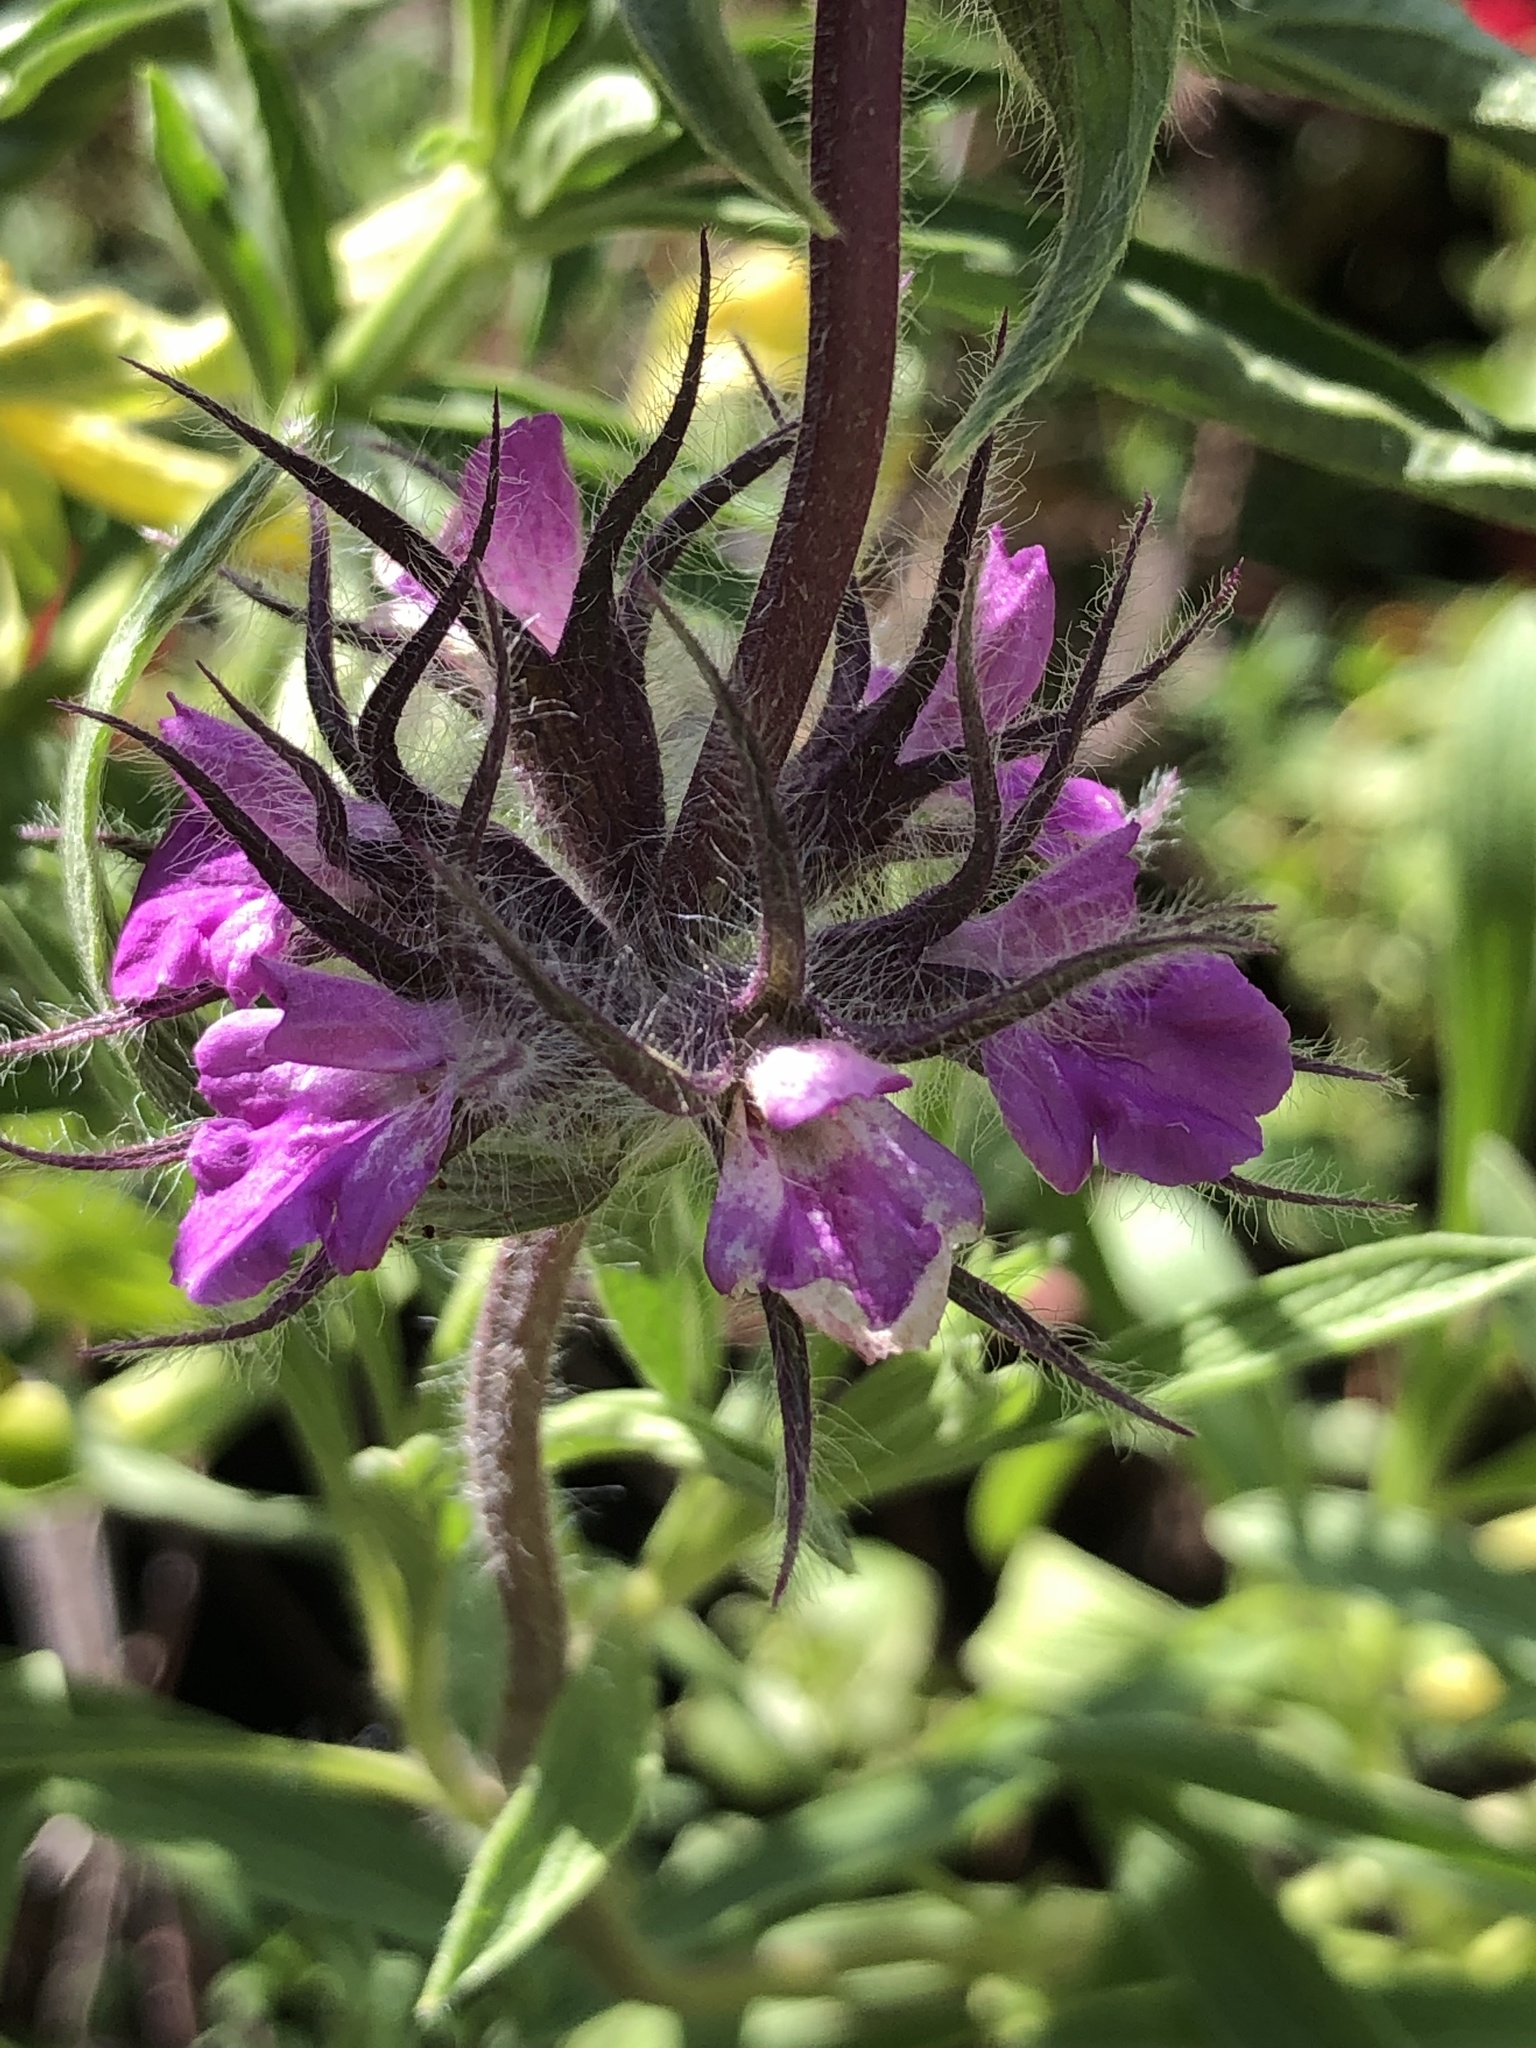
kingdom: Plantae
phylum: Tracheophyta
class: Magnoliopsida
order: Lamiales
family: Lamiaceae
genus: Salvia
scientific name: Salvia spathacea
